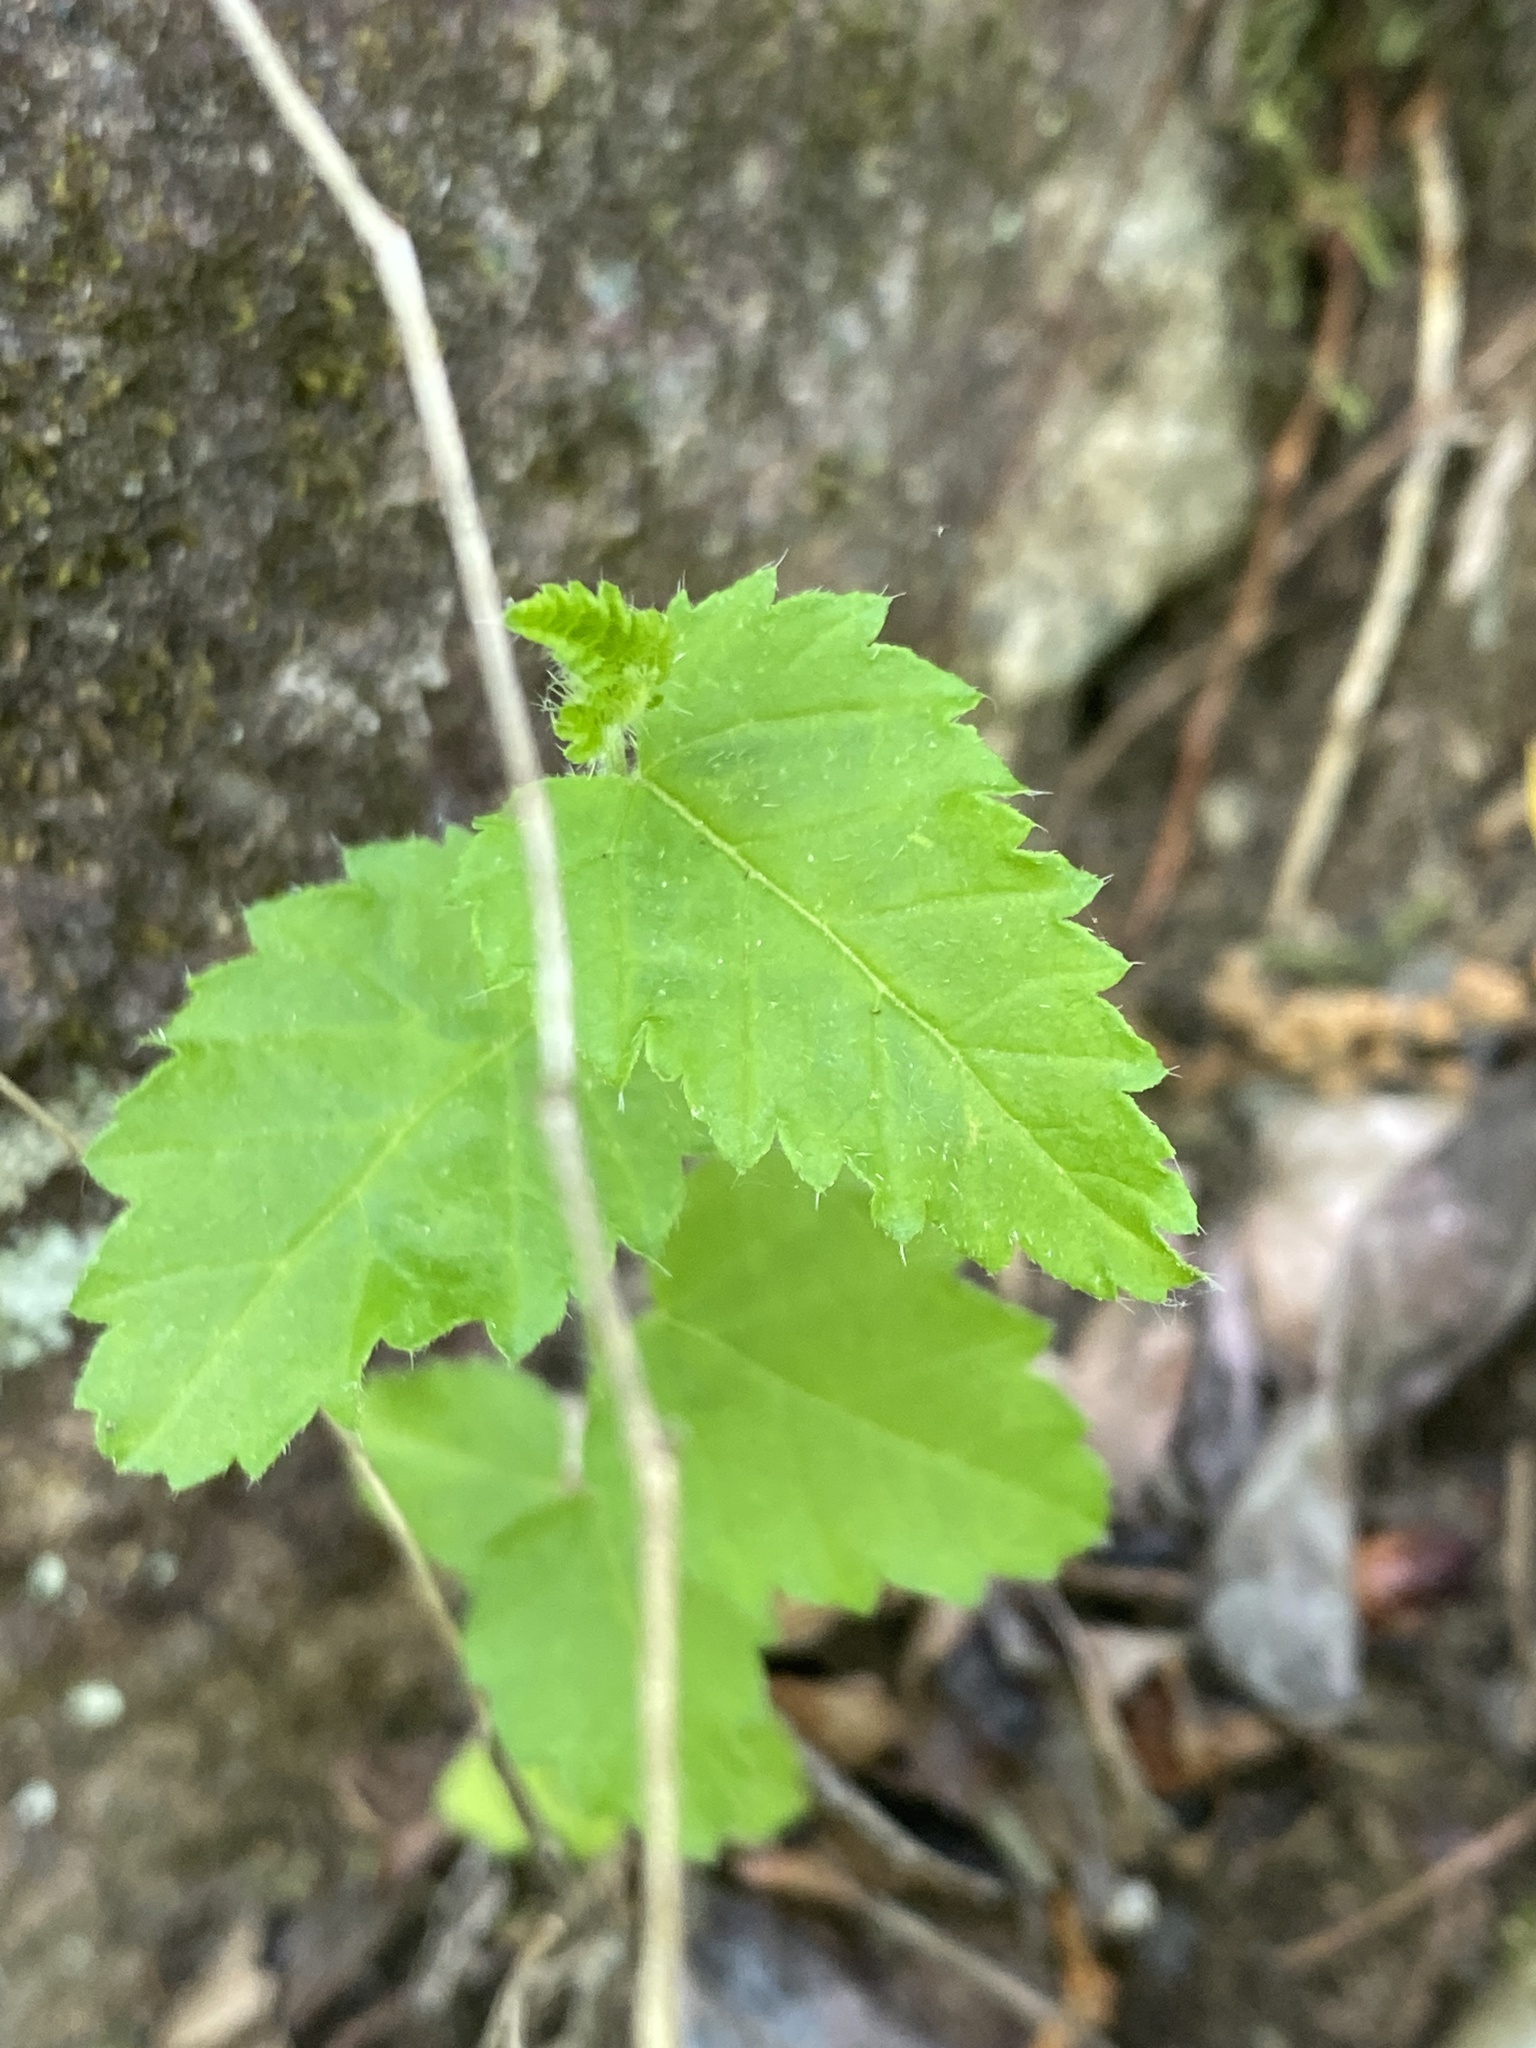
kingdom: Plantae
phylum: Tracheophyta
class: Magnoliopsida
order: Malpighiales
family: Euphorbiaceae
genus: Tragia
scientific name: Tragia urticifolia
